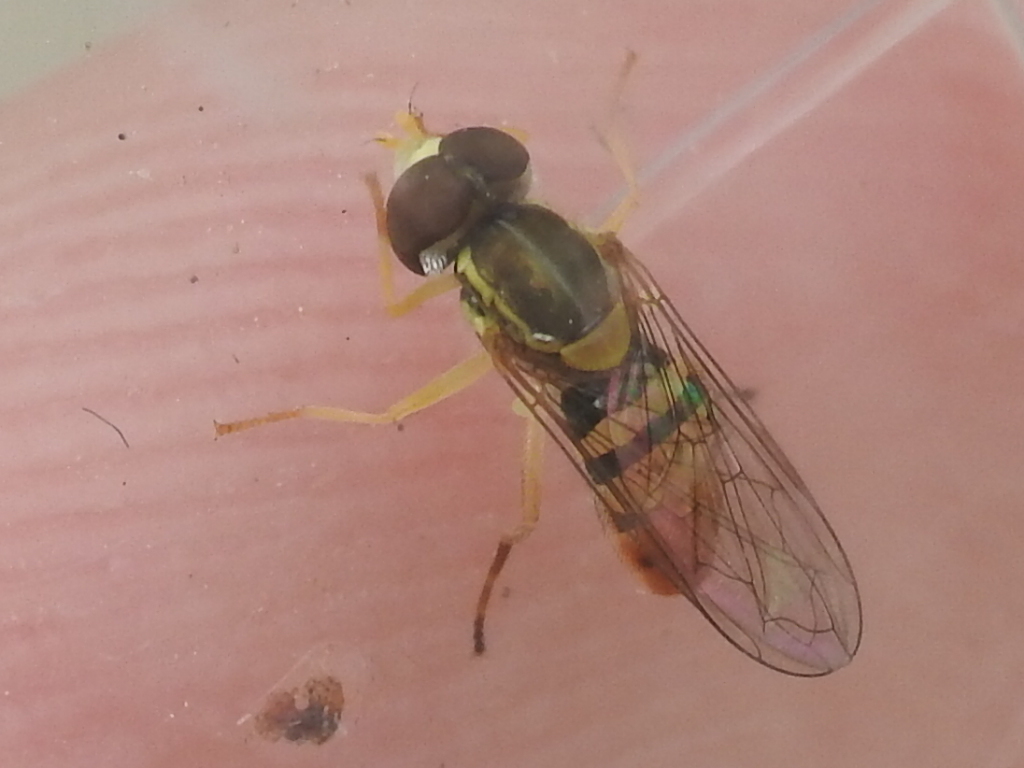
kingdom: Animalia
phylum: Arthropoda
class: Insecta
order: Diptera
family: Syrphidae
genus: Toxomerus
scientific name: Toxomerus marginatus
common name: Syrphid fly
